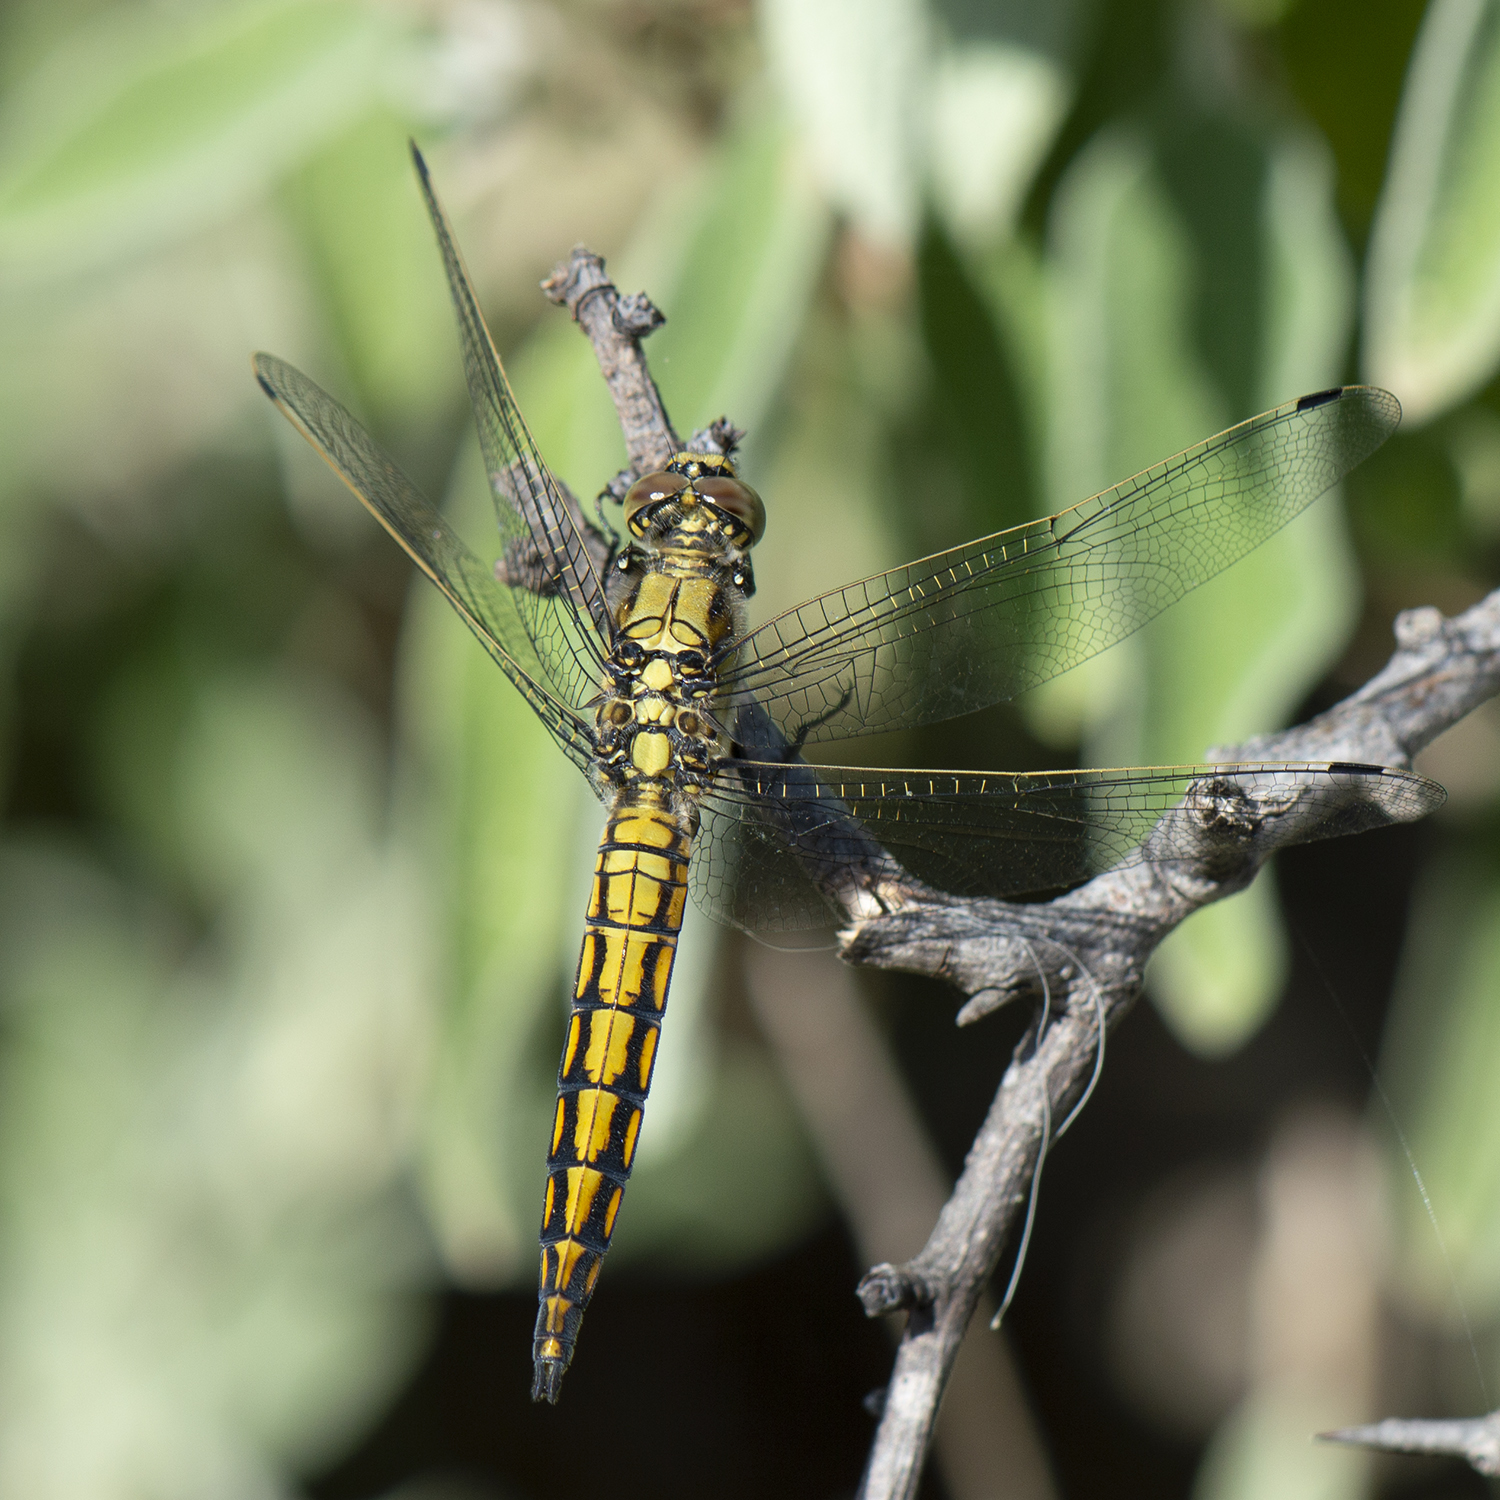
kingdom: Animalia
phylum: Arthropoda
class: Insecta
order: Odonata
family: Libellulidae
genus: Orthetrum
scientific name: Orthetrum cancellatum
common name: Black-tailed skimmer
